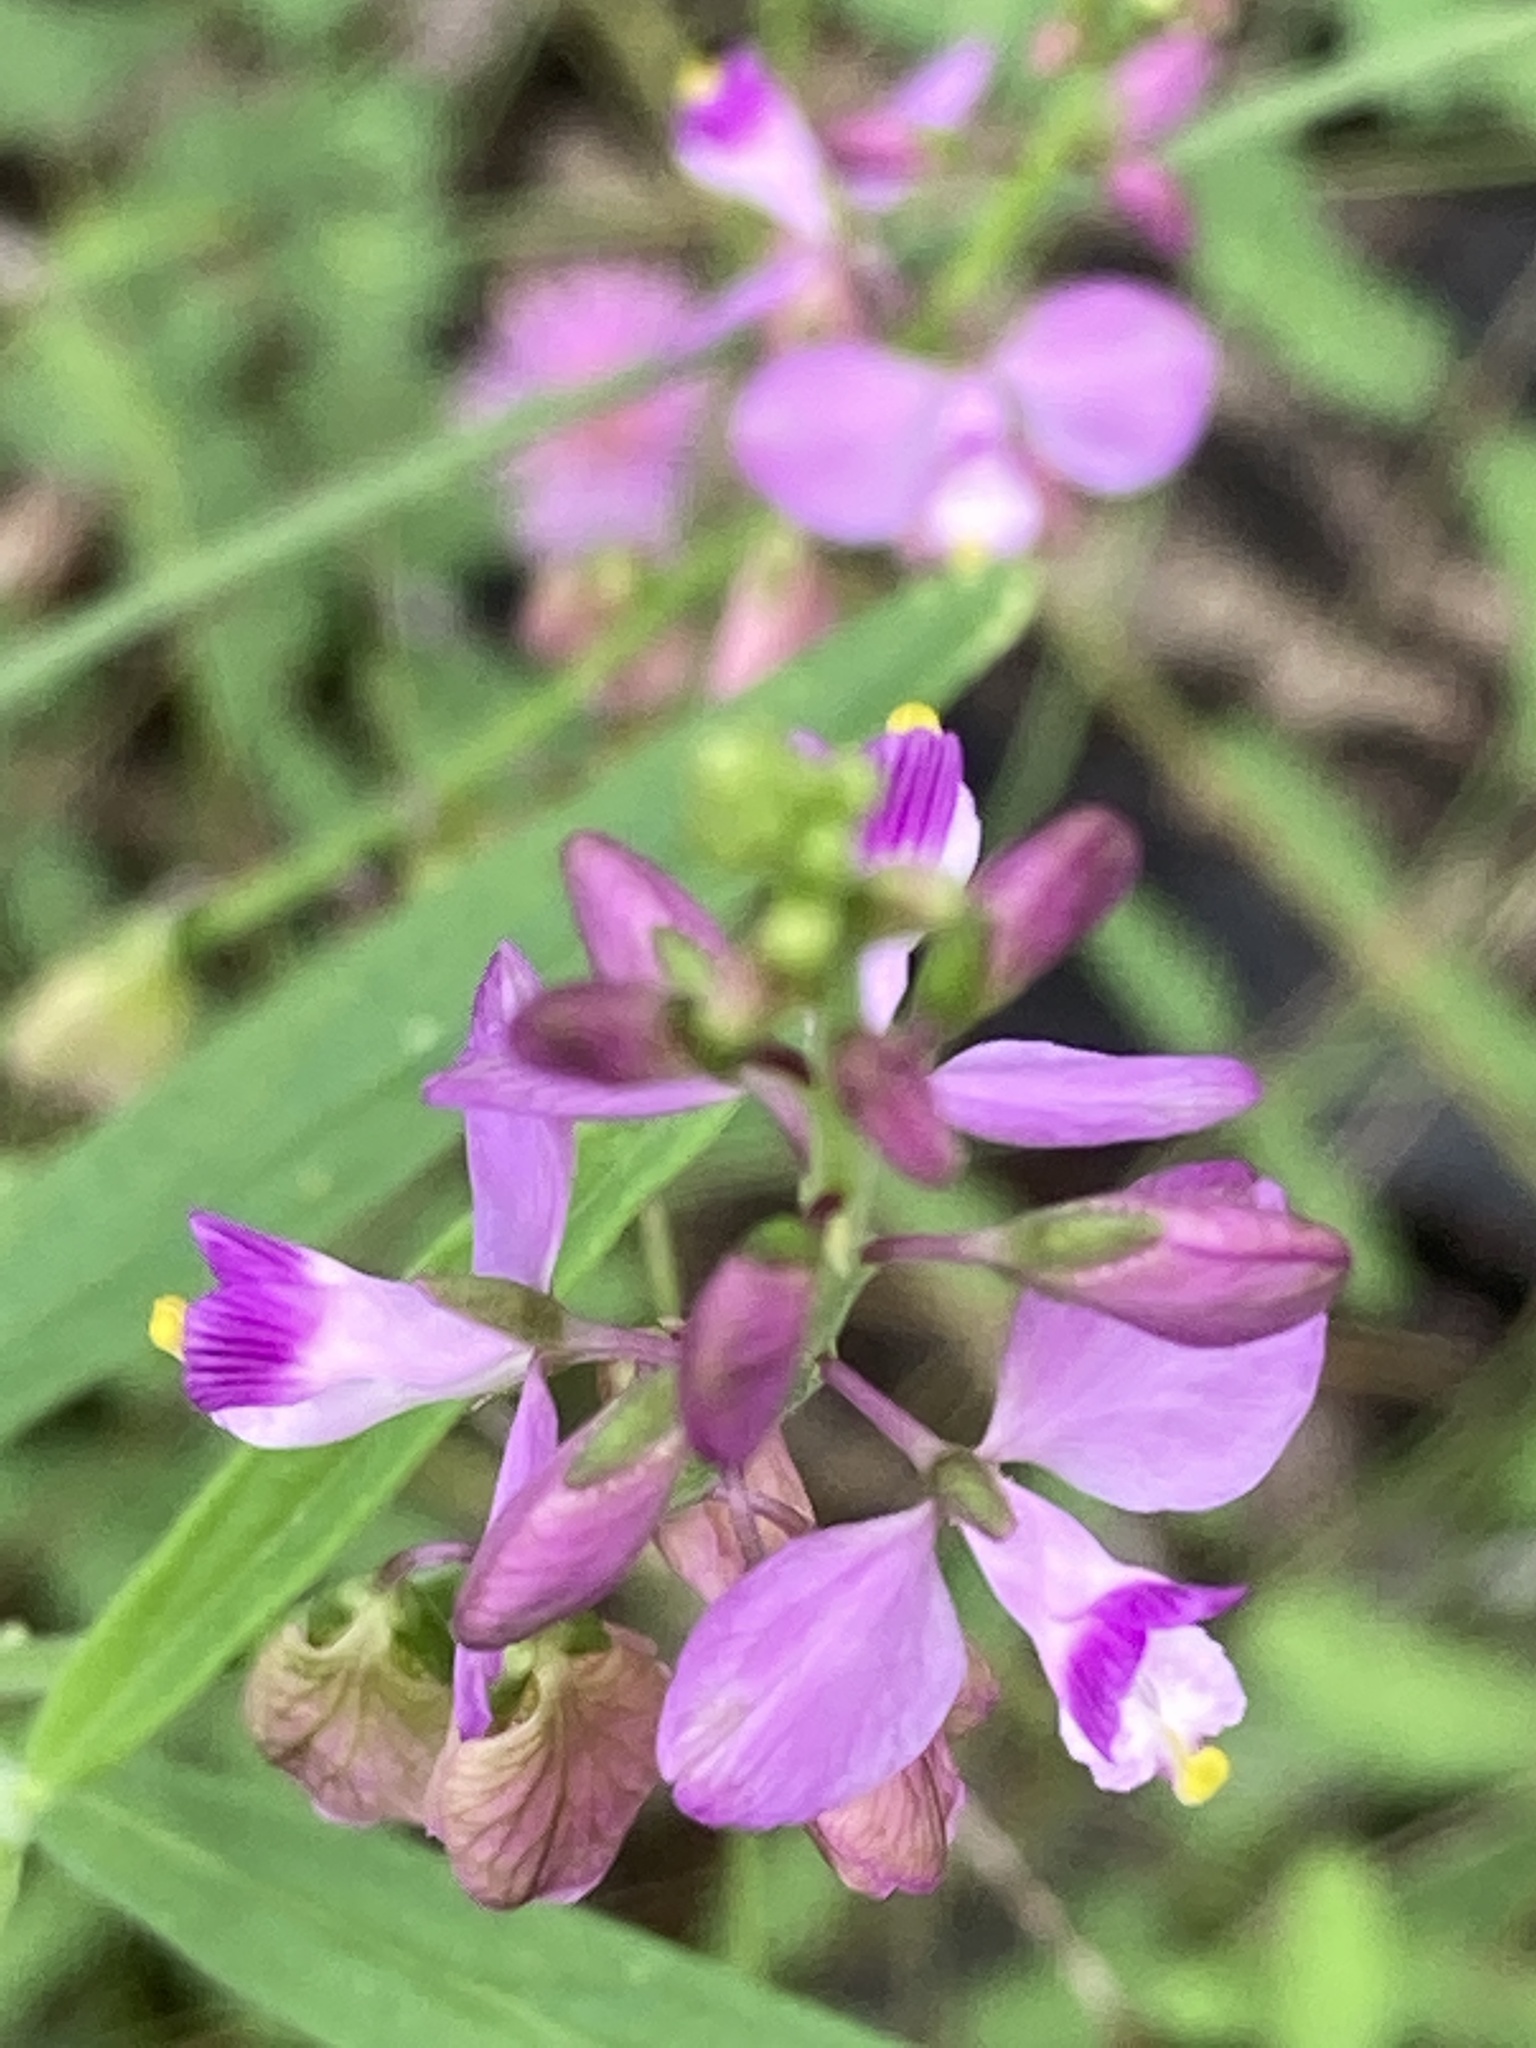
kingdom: Plantae
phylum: Tracheophyta
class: Magnoliopsida
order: Fabales
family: Polygalaceae
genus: Asemeia
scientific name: Asemeia grandiflora
